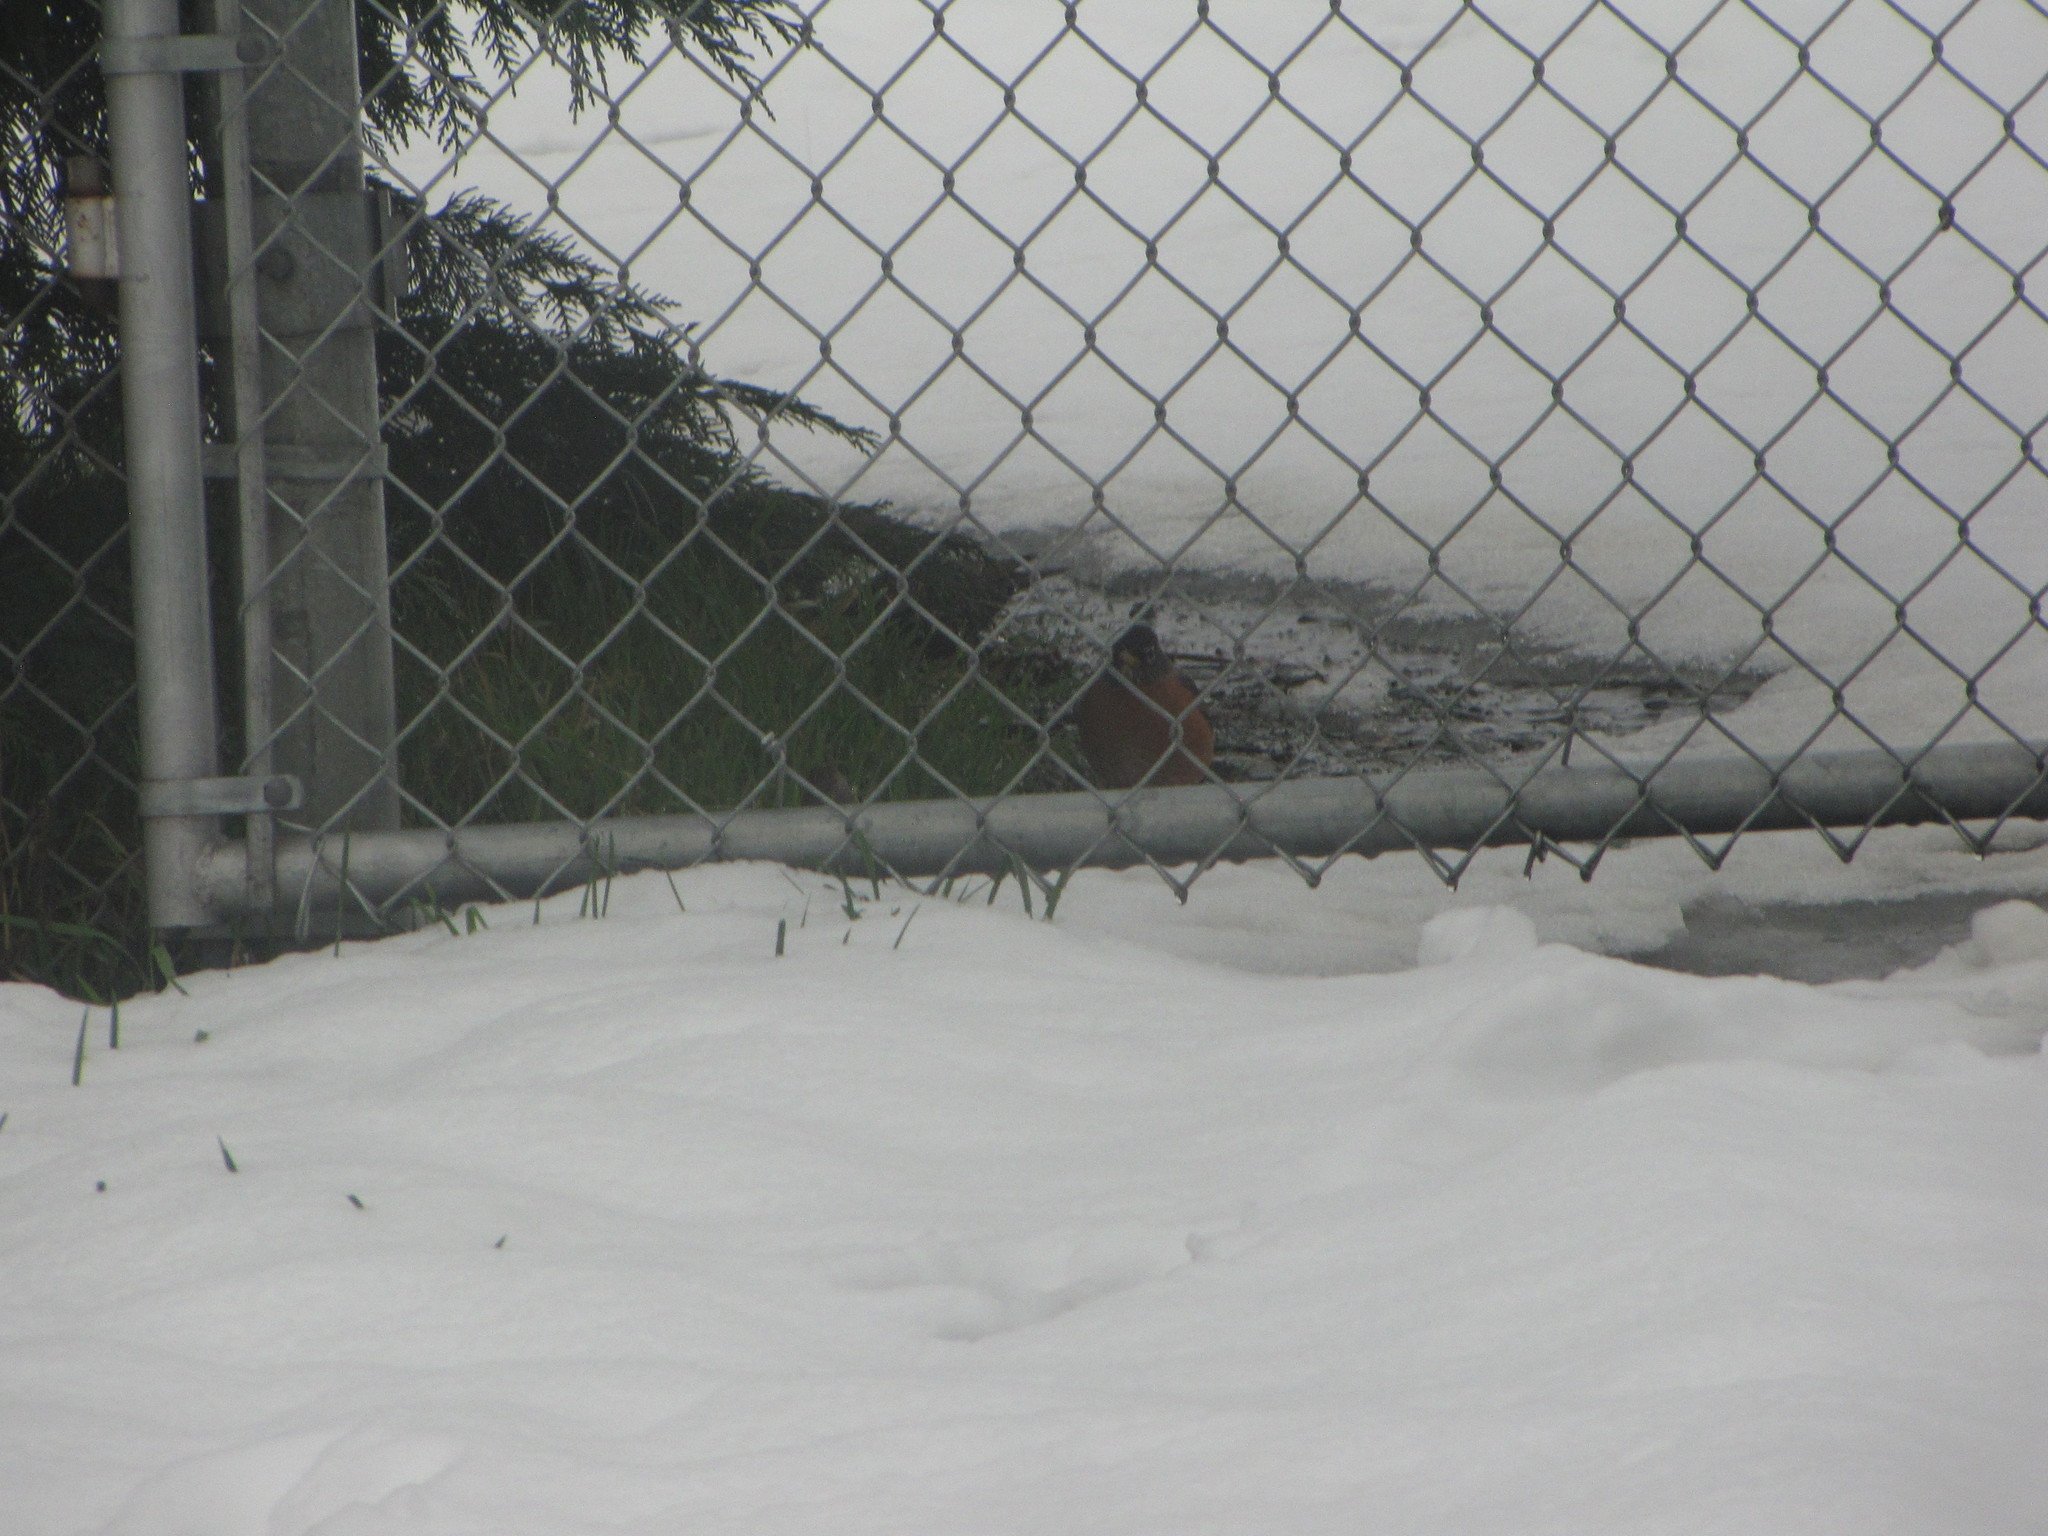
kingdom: Animalia
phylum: Chordata
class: Aves
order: Passeriformes
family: Turdidae
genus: Turdus
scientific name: Turdus migratorius
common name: American robin
